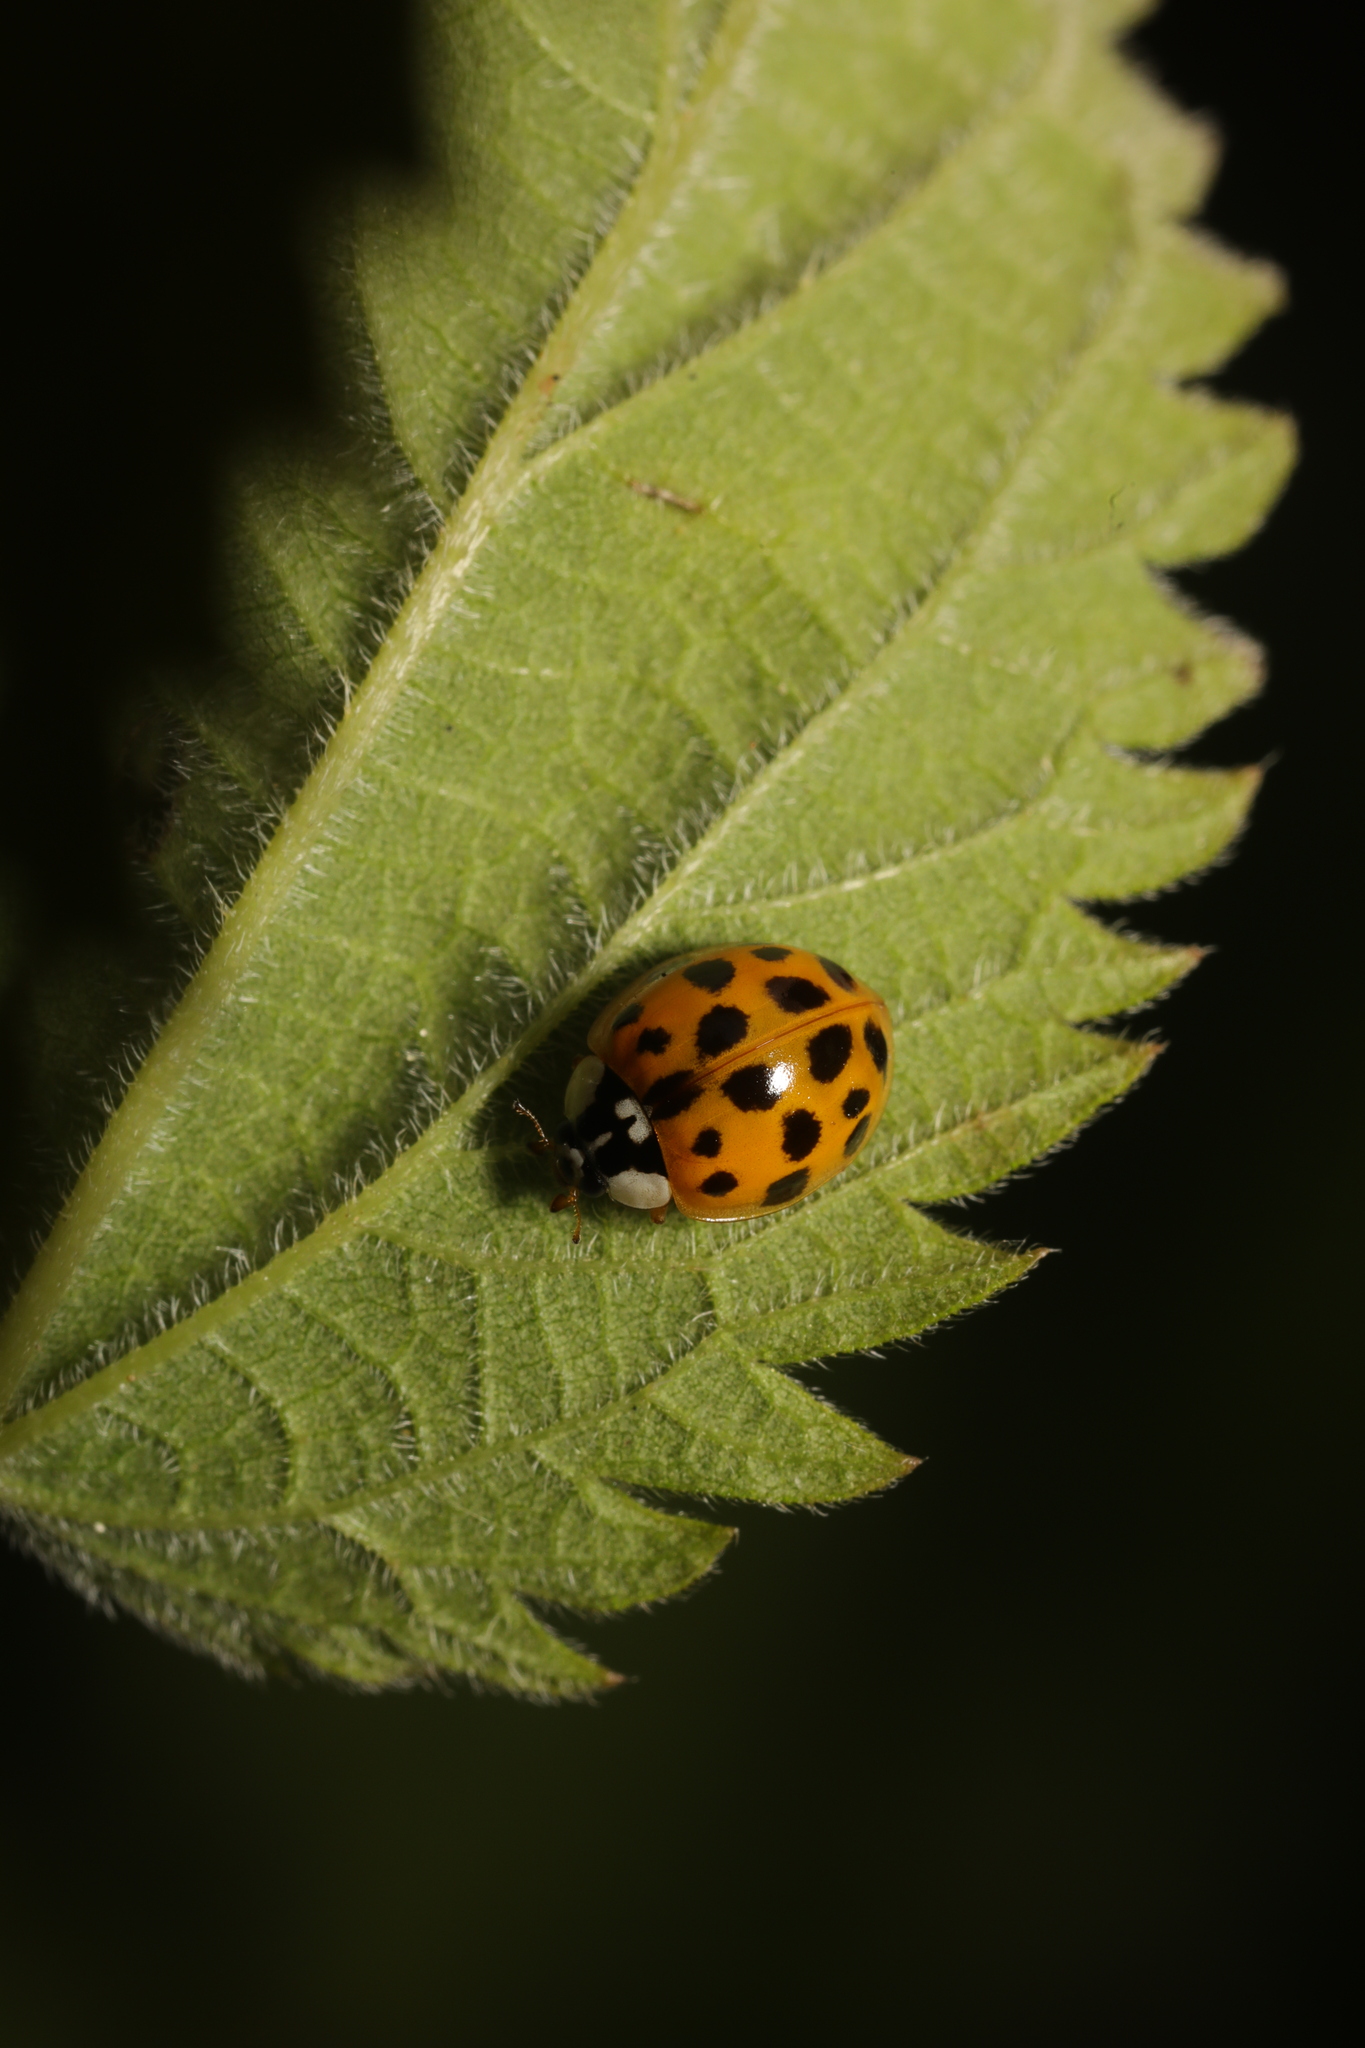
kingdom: Animalia
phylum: Arthropoda
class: Insecta
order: Coleoptera
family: Coccinellidae
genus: Harmonia
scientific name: Harmonia axyridis
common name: Harlequin ladybird
